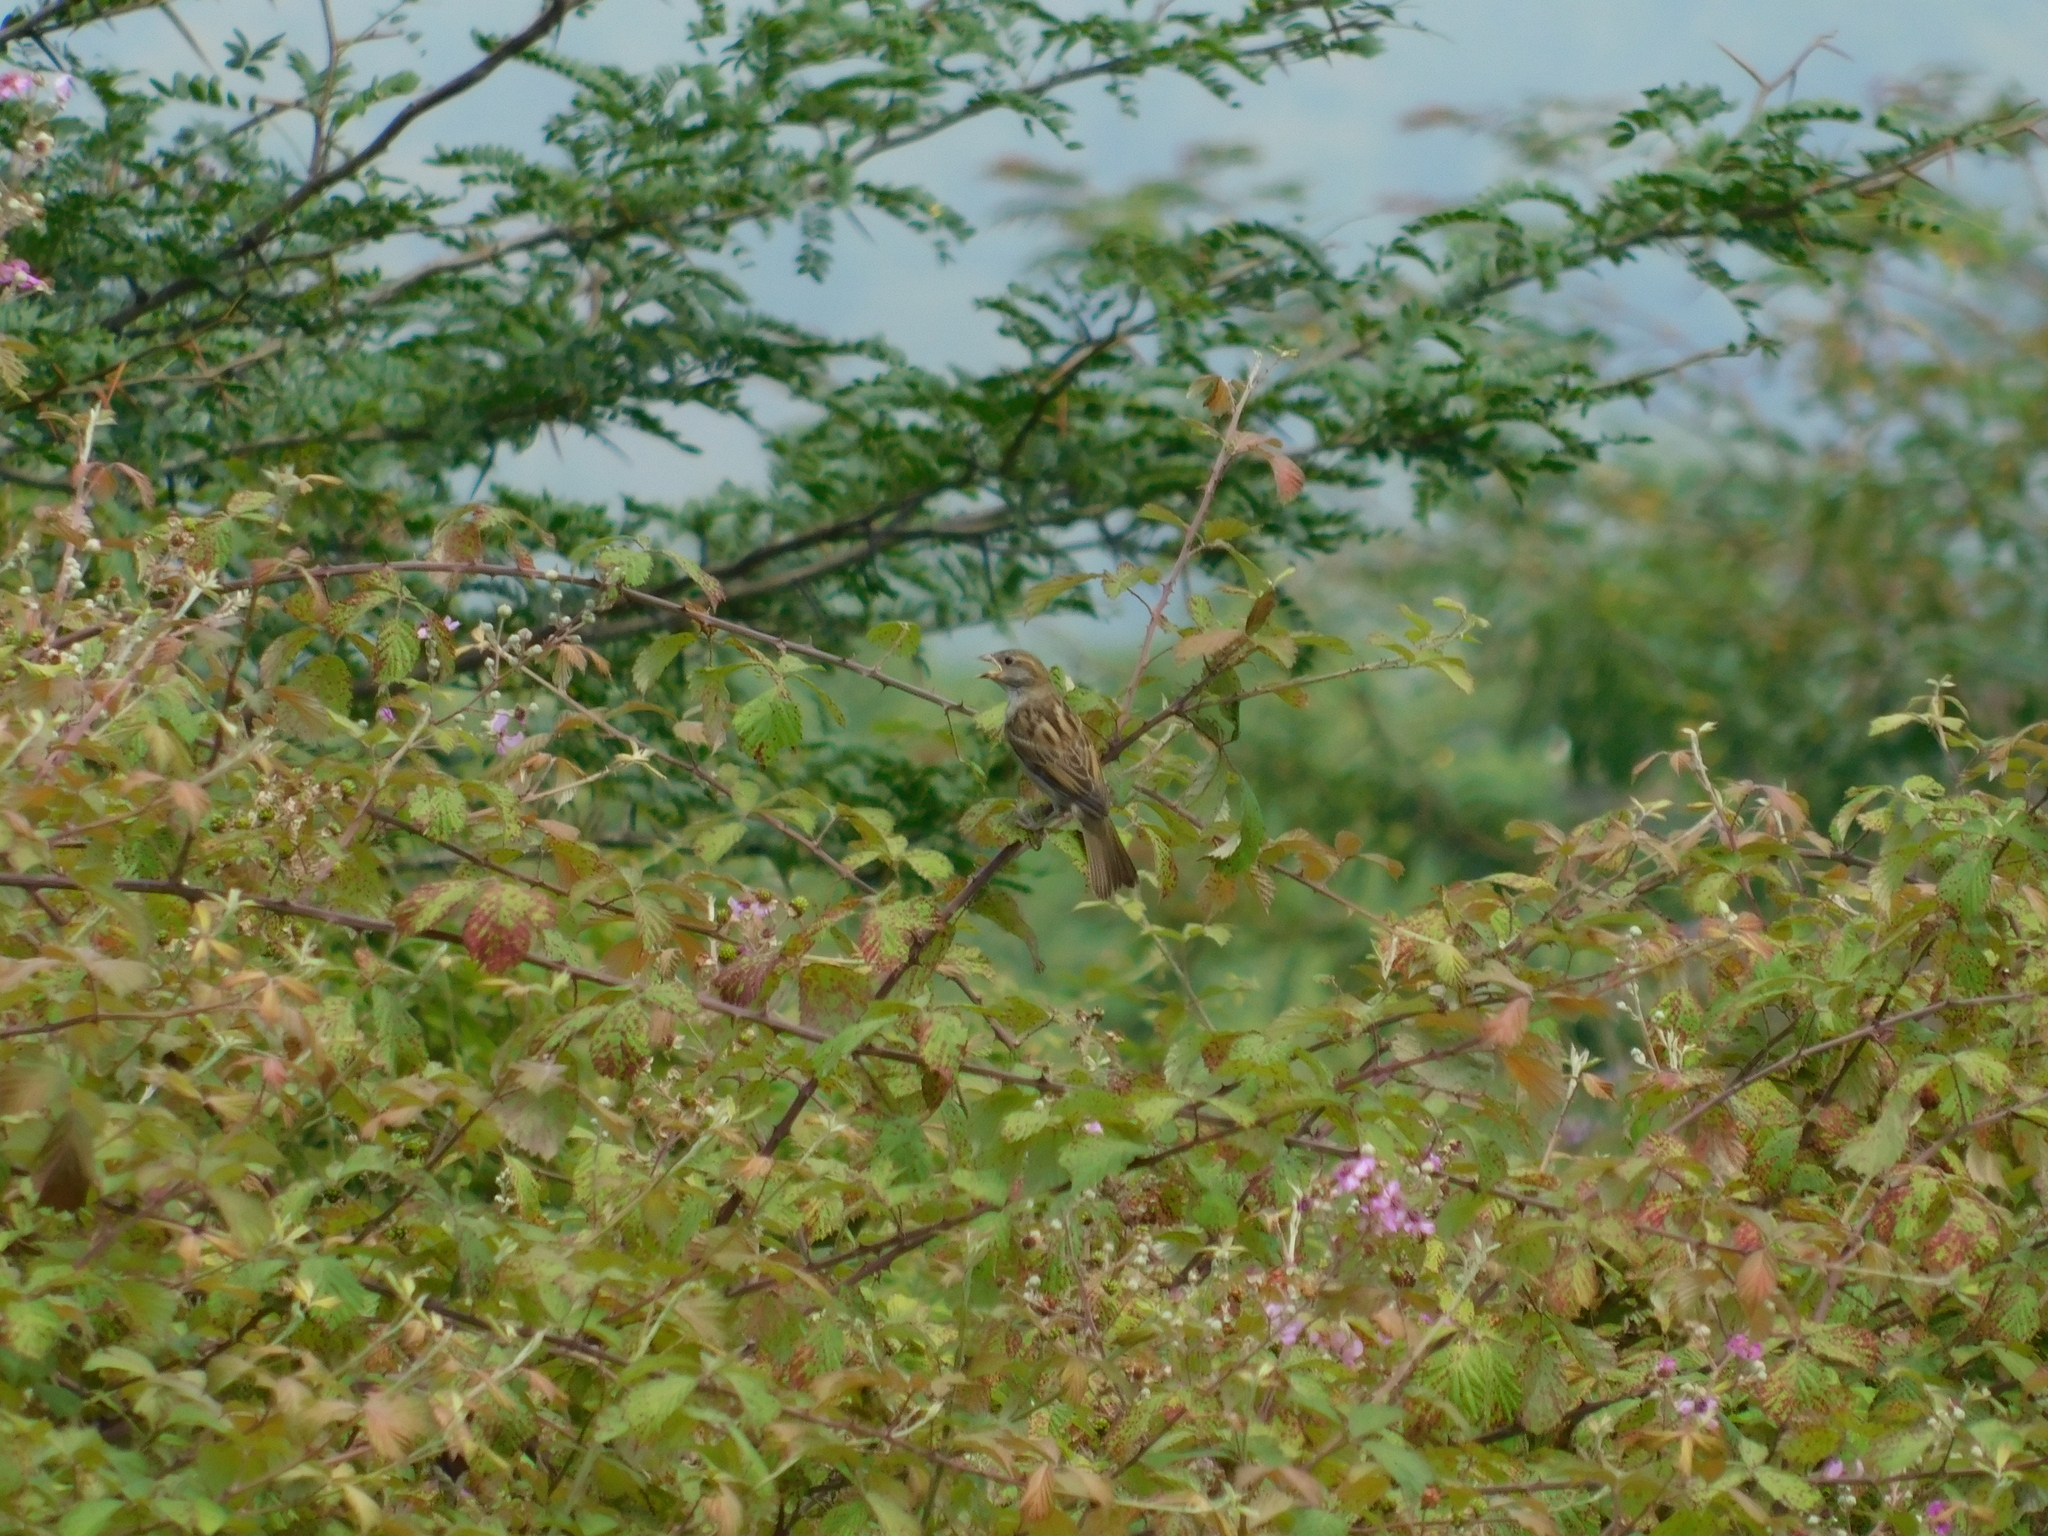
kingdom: Animalia
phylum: Chordata
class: Aves
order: Passeriformes
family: Passeridae
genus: Passer
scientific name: Passer domesticus
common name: House sparrow
